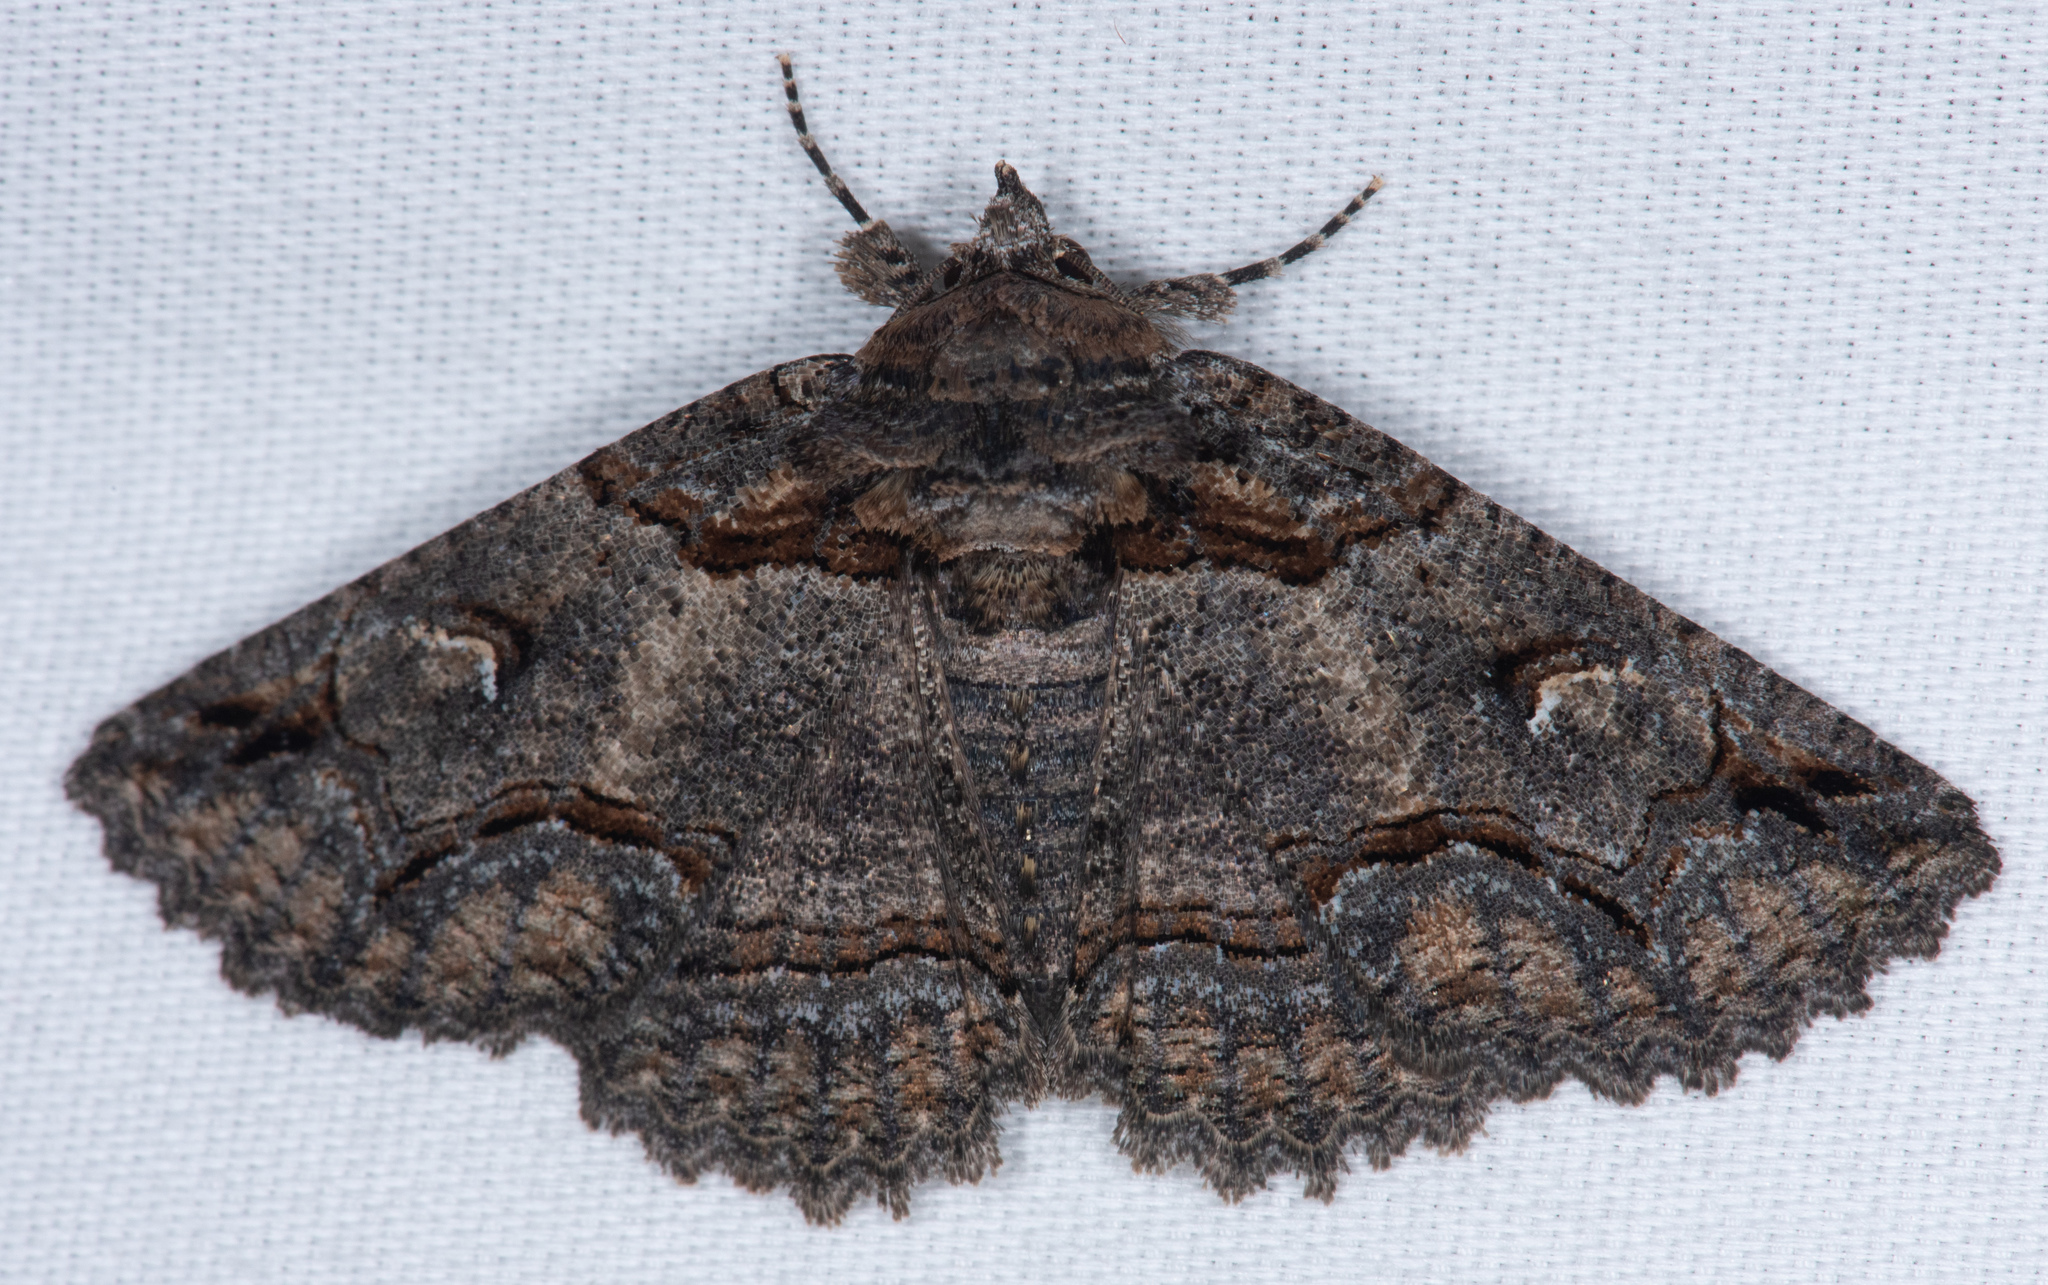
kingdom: Animalia
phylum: Arthropoda
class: Insecta
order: Lepidoptera
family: Erebidae
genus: Zale
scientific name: Zale termina
